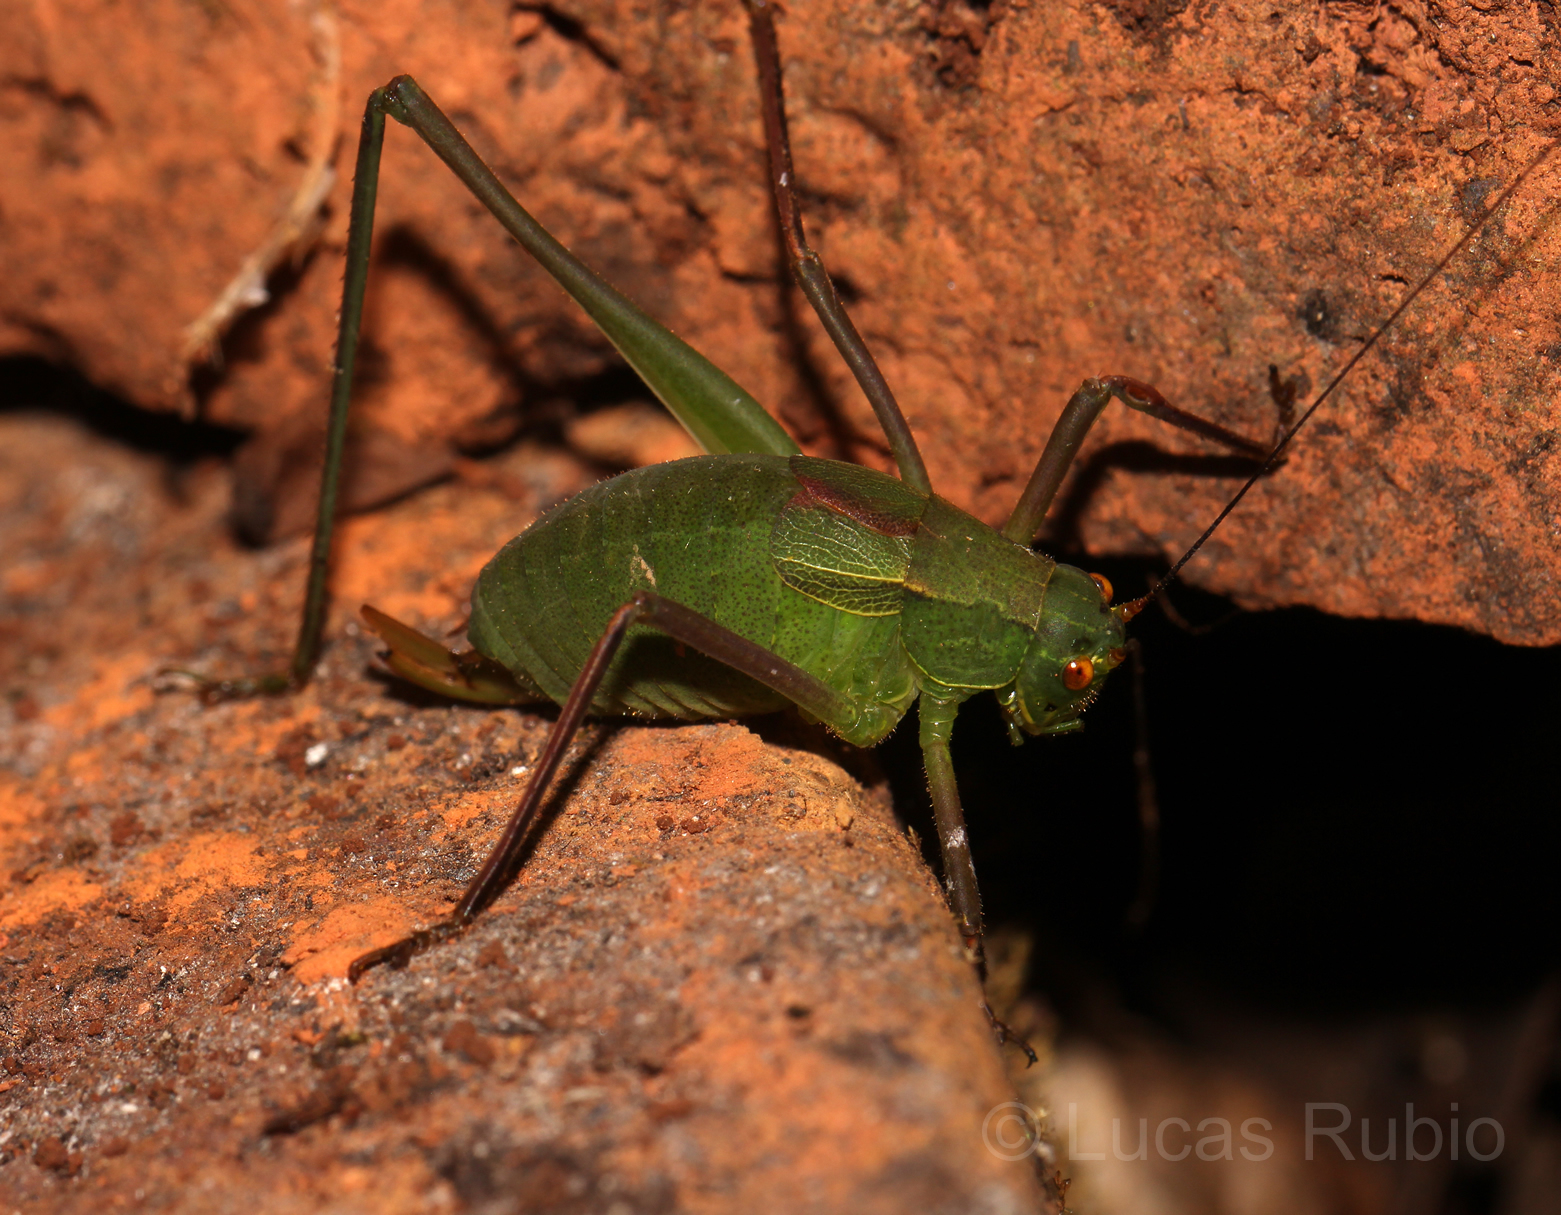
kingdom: Animalia
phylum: Arthropoda
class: Insecta
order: Orthoptera
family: Tettigoniidae
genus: Anisophya
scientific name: Anisophya melanochloris
